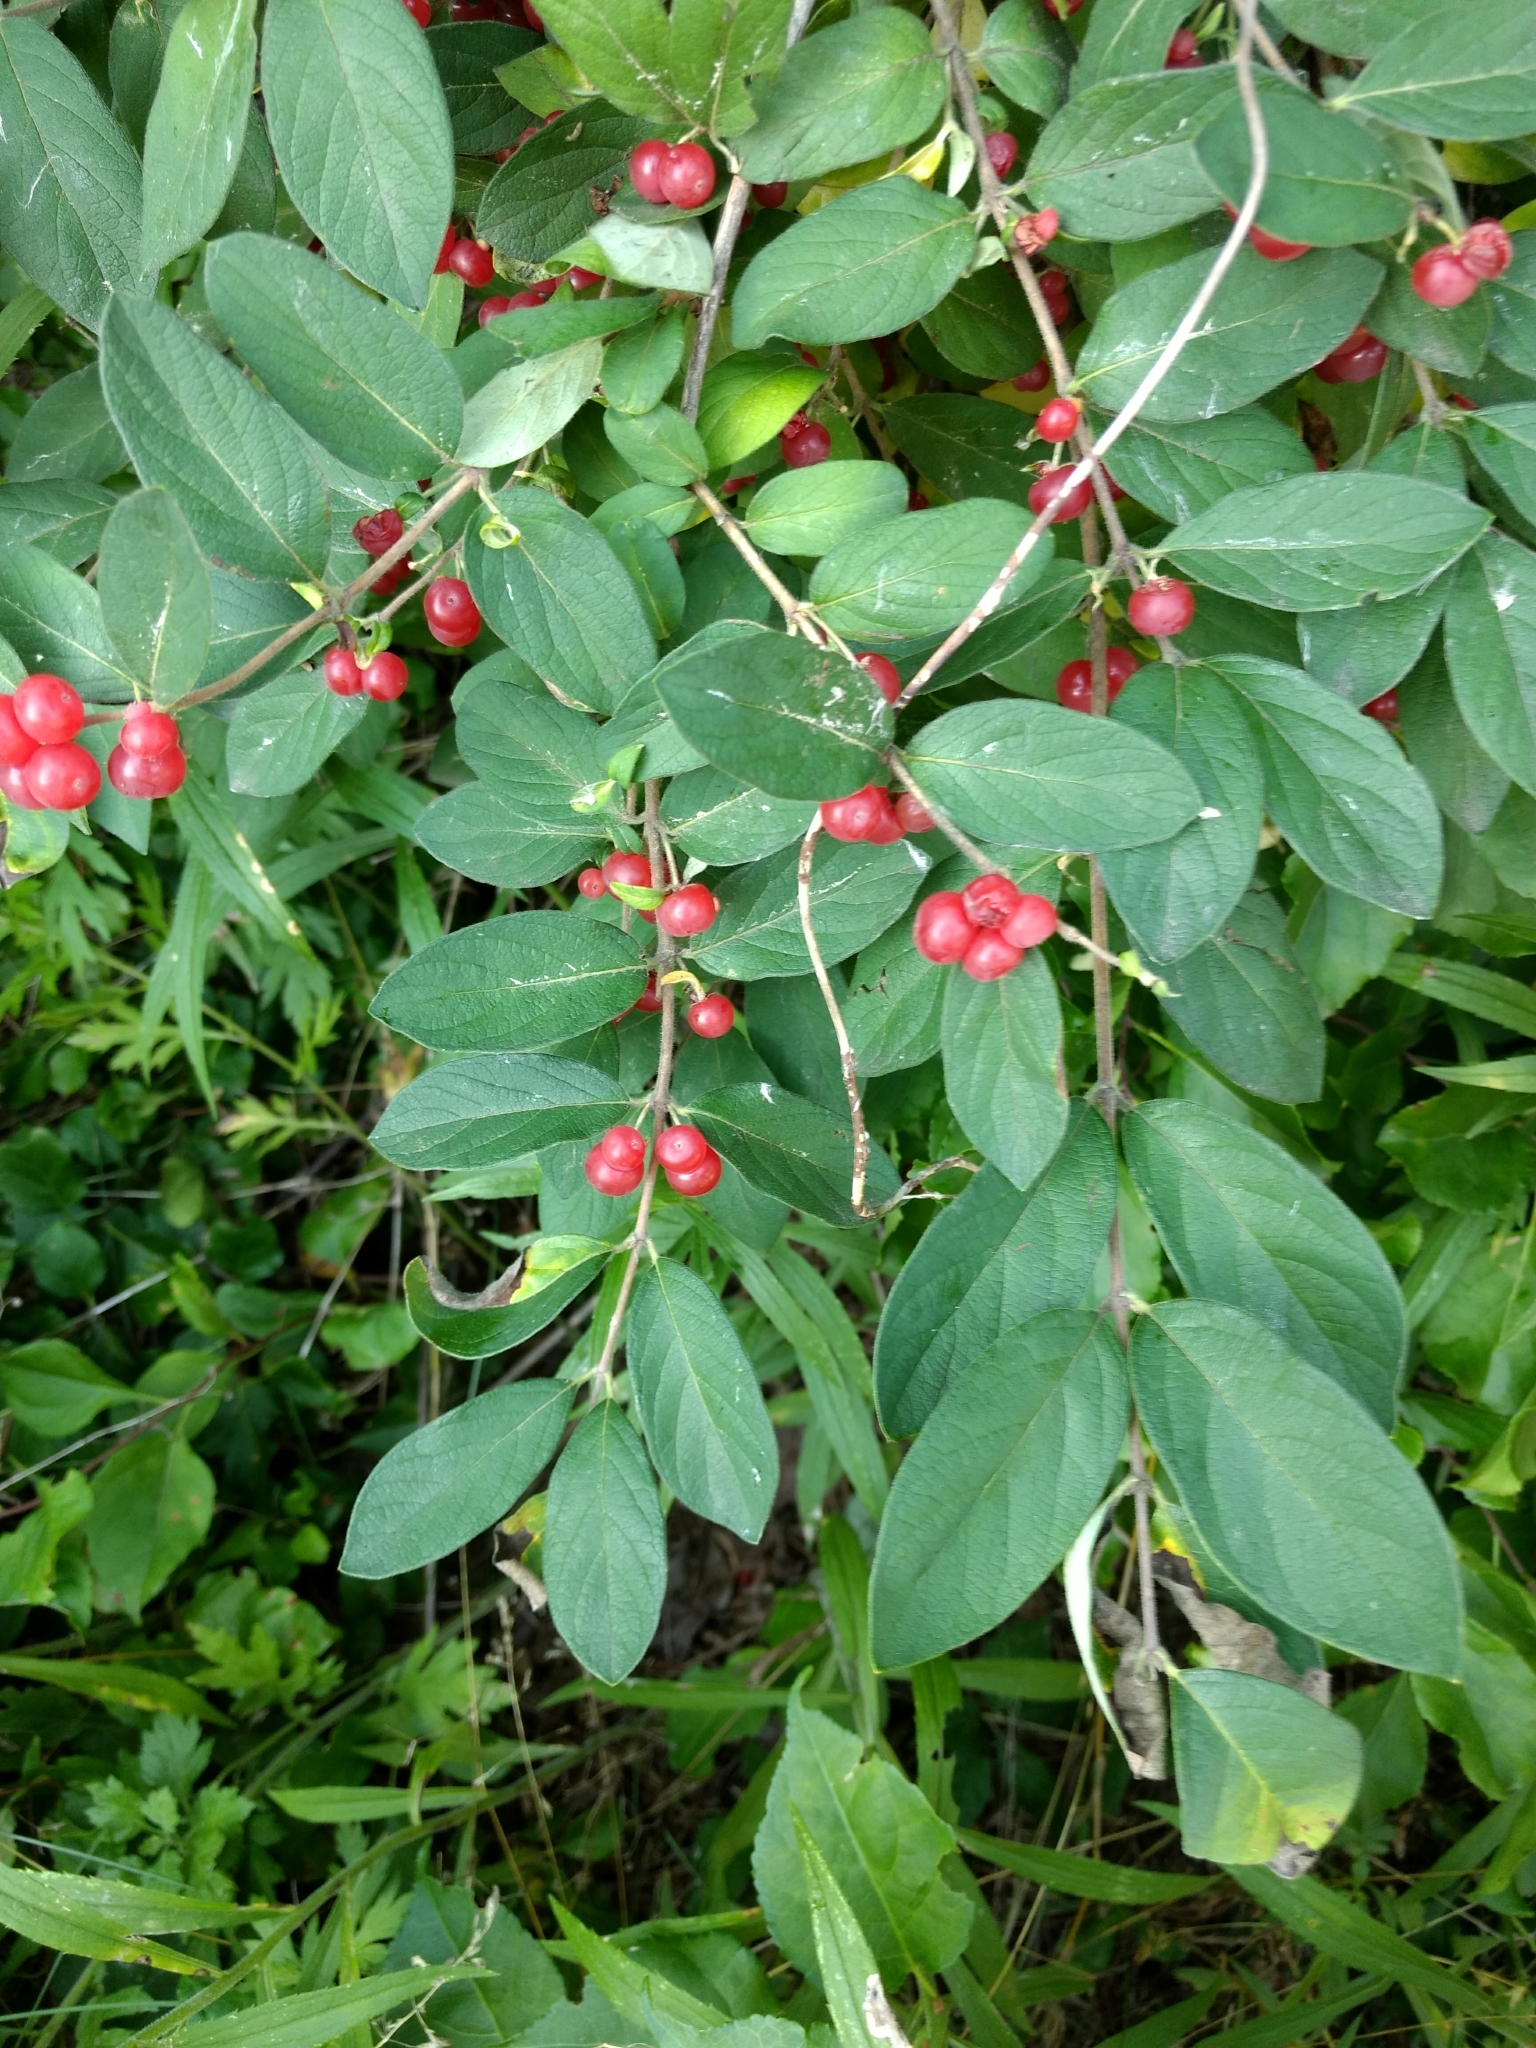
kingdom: Plantae
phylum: Tracheophyta
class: Magnoliopsida
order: Dipsacales
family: Caprifoliaceae
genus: Lonicera
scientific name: Lonicera morrowii
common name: Morrow's honeysuckle
